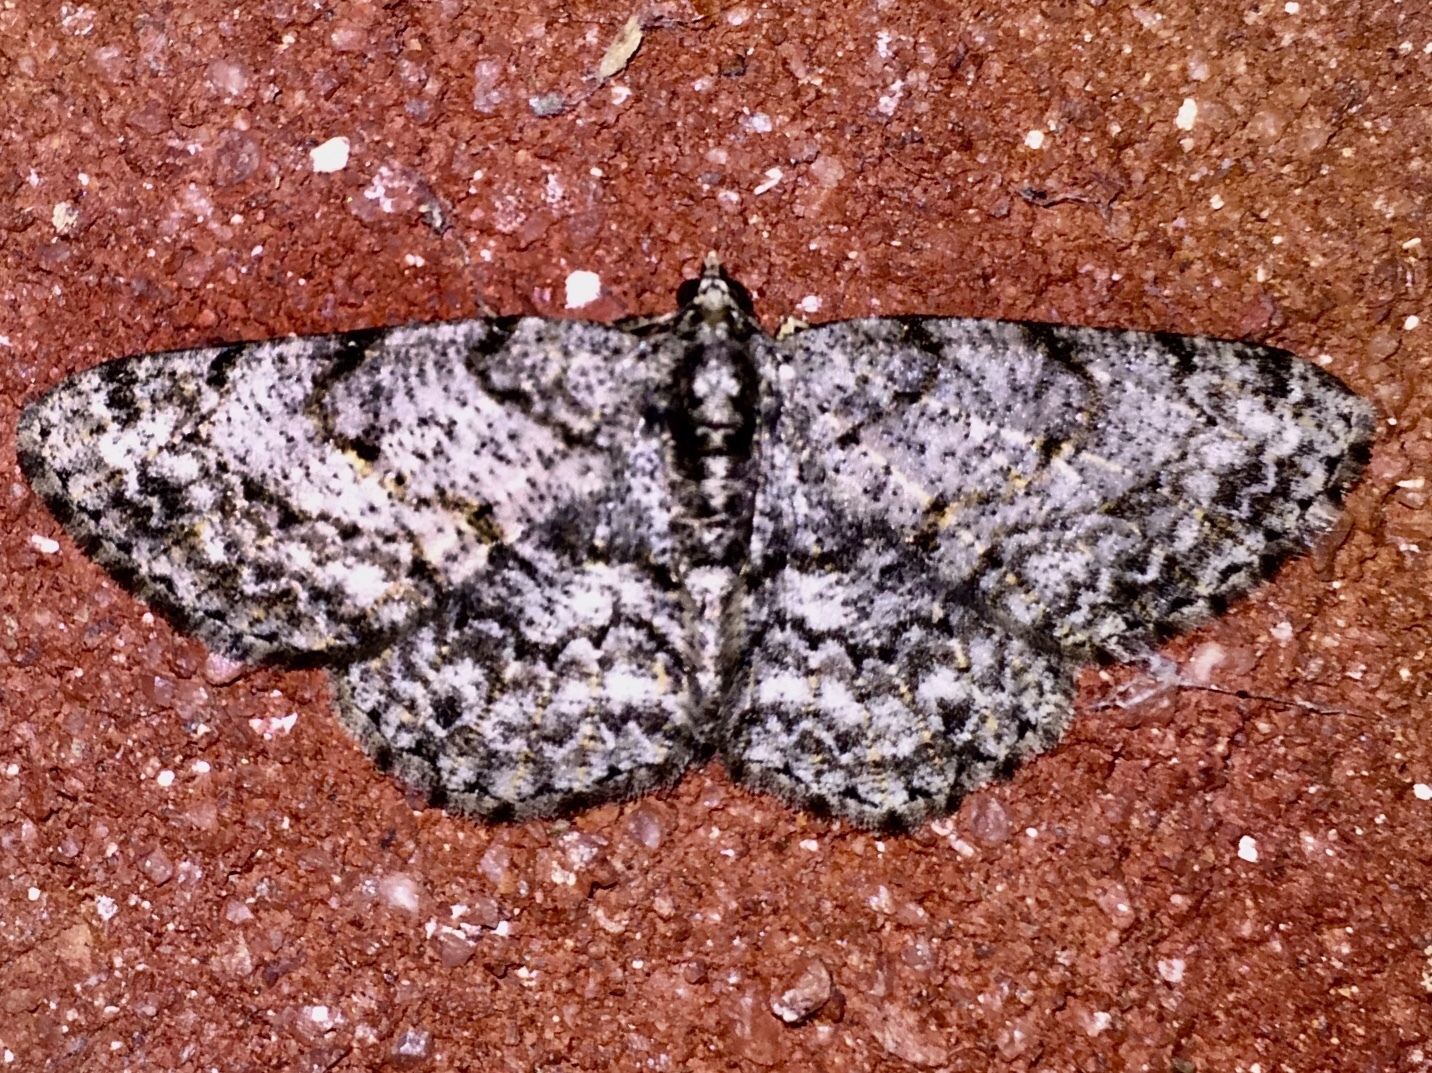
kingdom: Animalia
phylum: Arthropoda
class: Insecta
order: Lepidoptera
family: Geometridae
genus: Protoboarmia
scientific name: Protoboarmia porcelaria
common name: Porcelain gray
